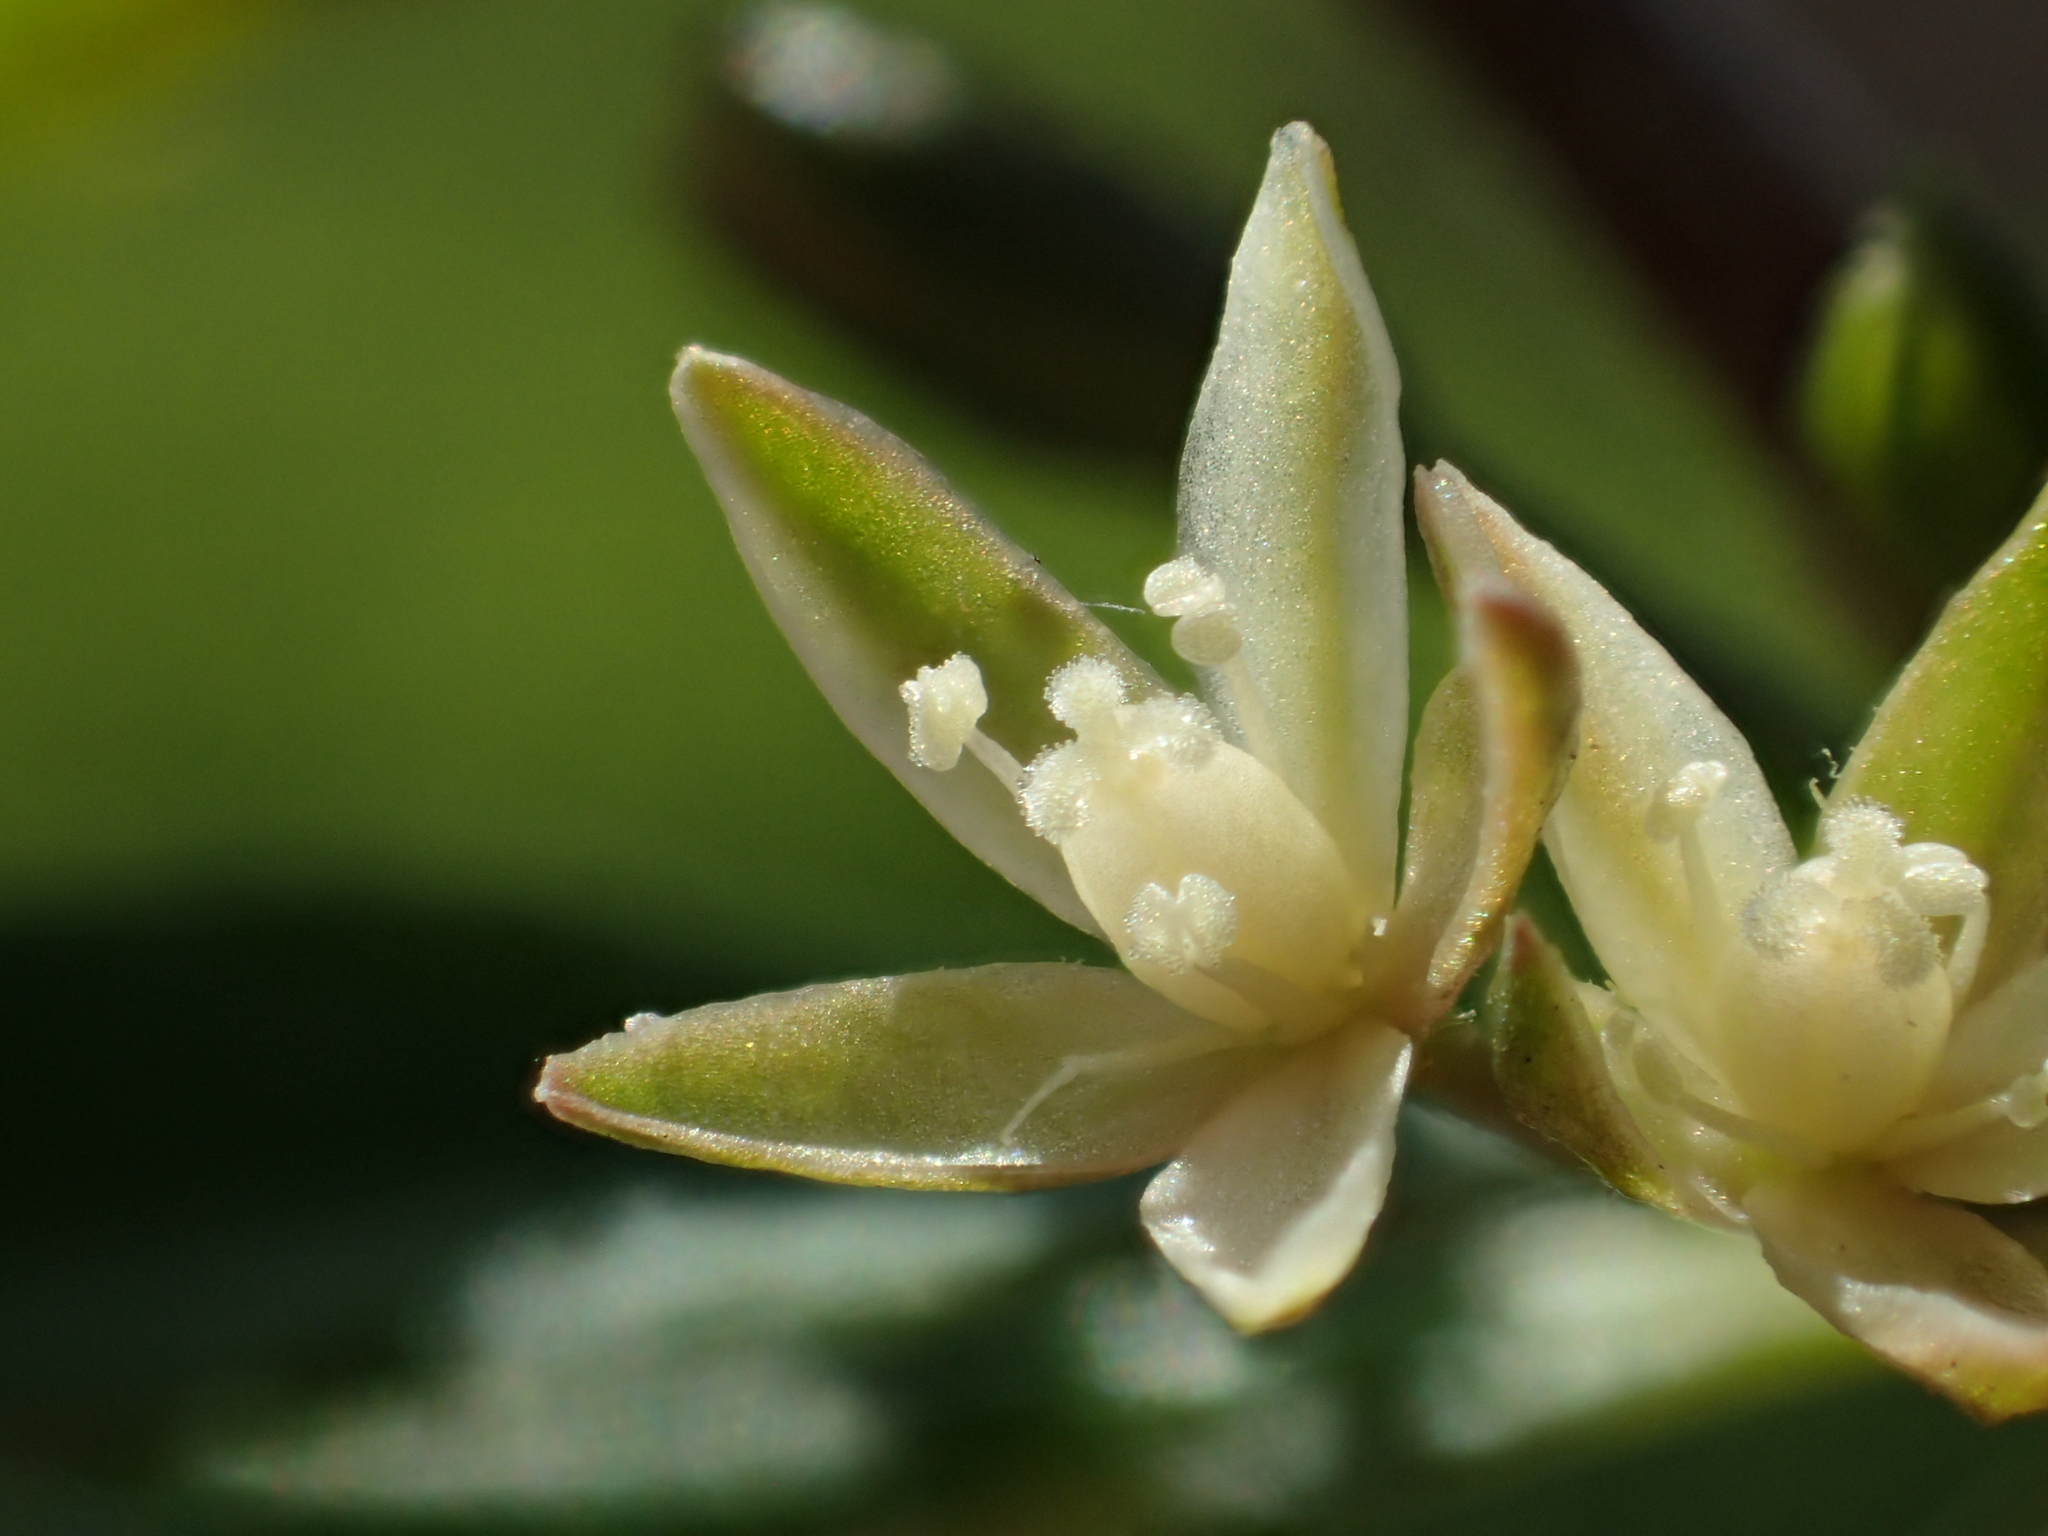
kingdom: Plantae
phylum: Tracheophyta
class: Magnoliopsida
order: Caryophyllales
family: Molluginaceae
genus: Glinus
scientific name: Glinus oppositifolius
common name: Slender carpetweed
